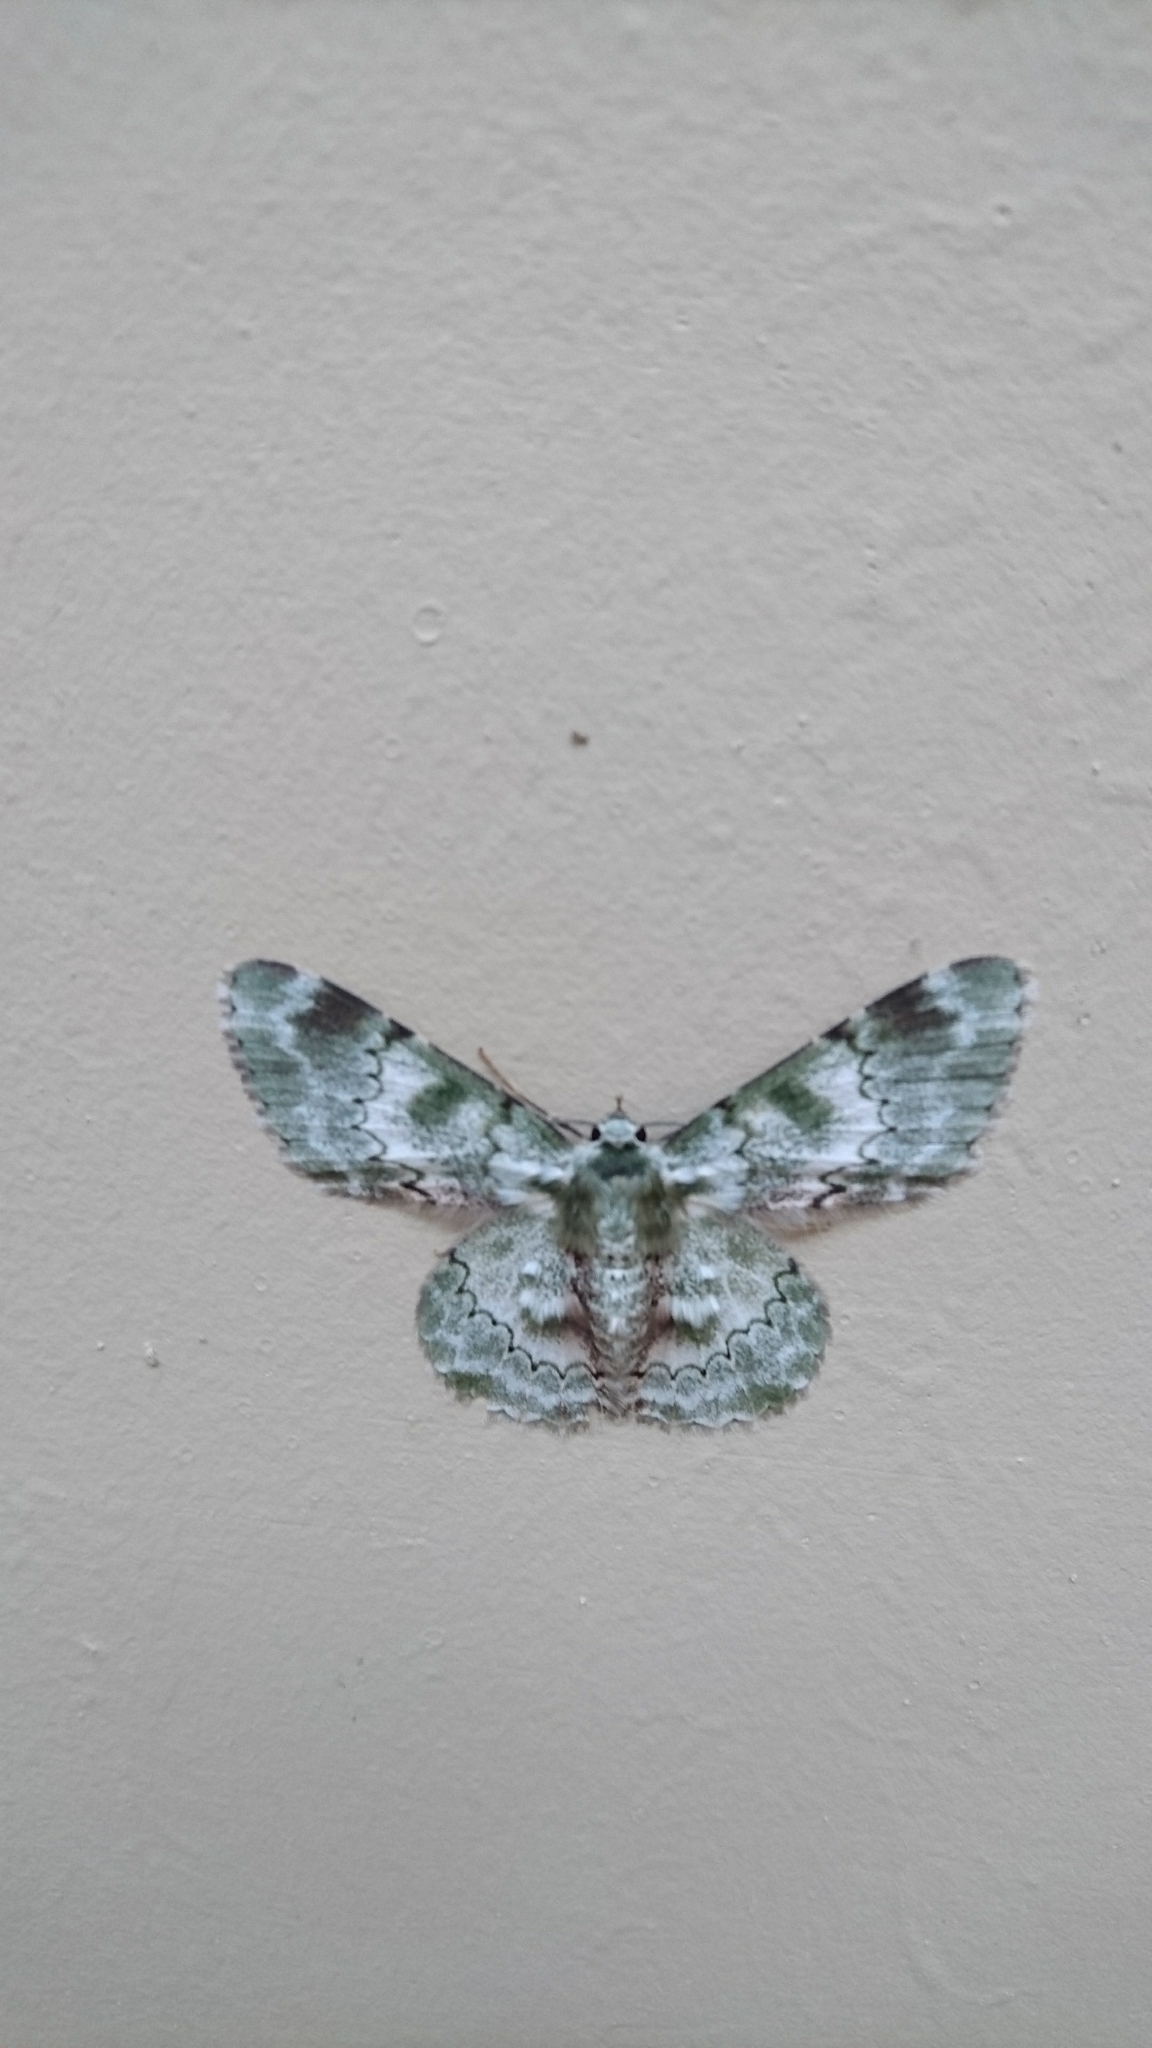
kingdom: Animalia
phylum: Arthropoda
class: Insecta
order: Lepidoptera
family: Geometridae
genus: Pingasa
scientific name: Pingasa subviridis
